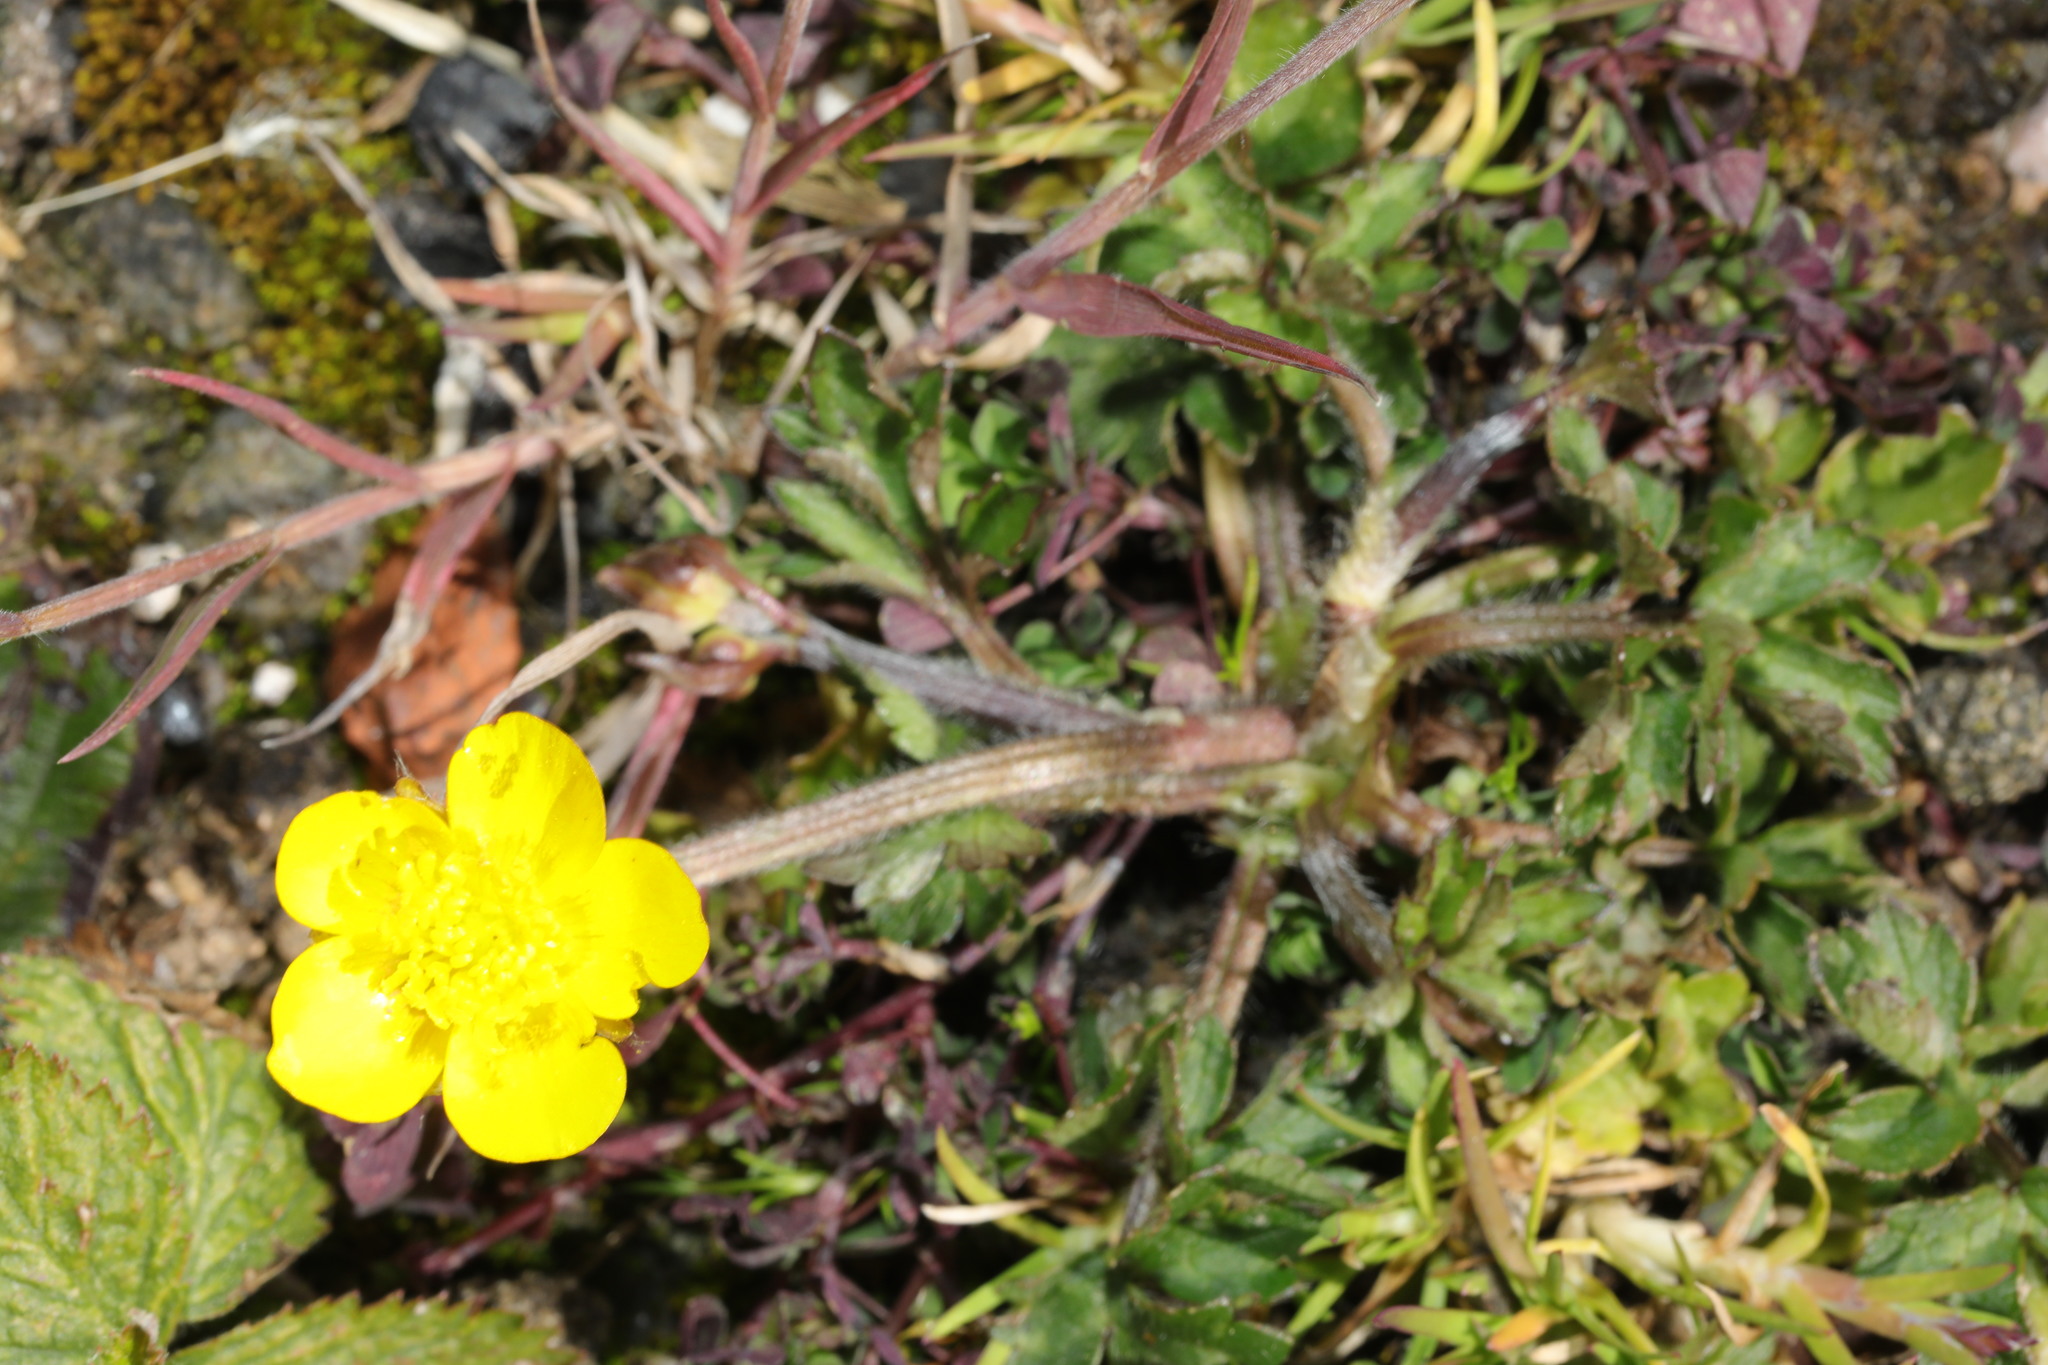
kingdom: Plantae
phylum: Tracheophyta
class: Magnoliopsida
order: Ranunculales
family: Ranunculaceae
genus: Ranunculus
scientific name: Ranunculus repens
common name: Creeping buttercup
